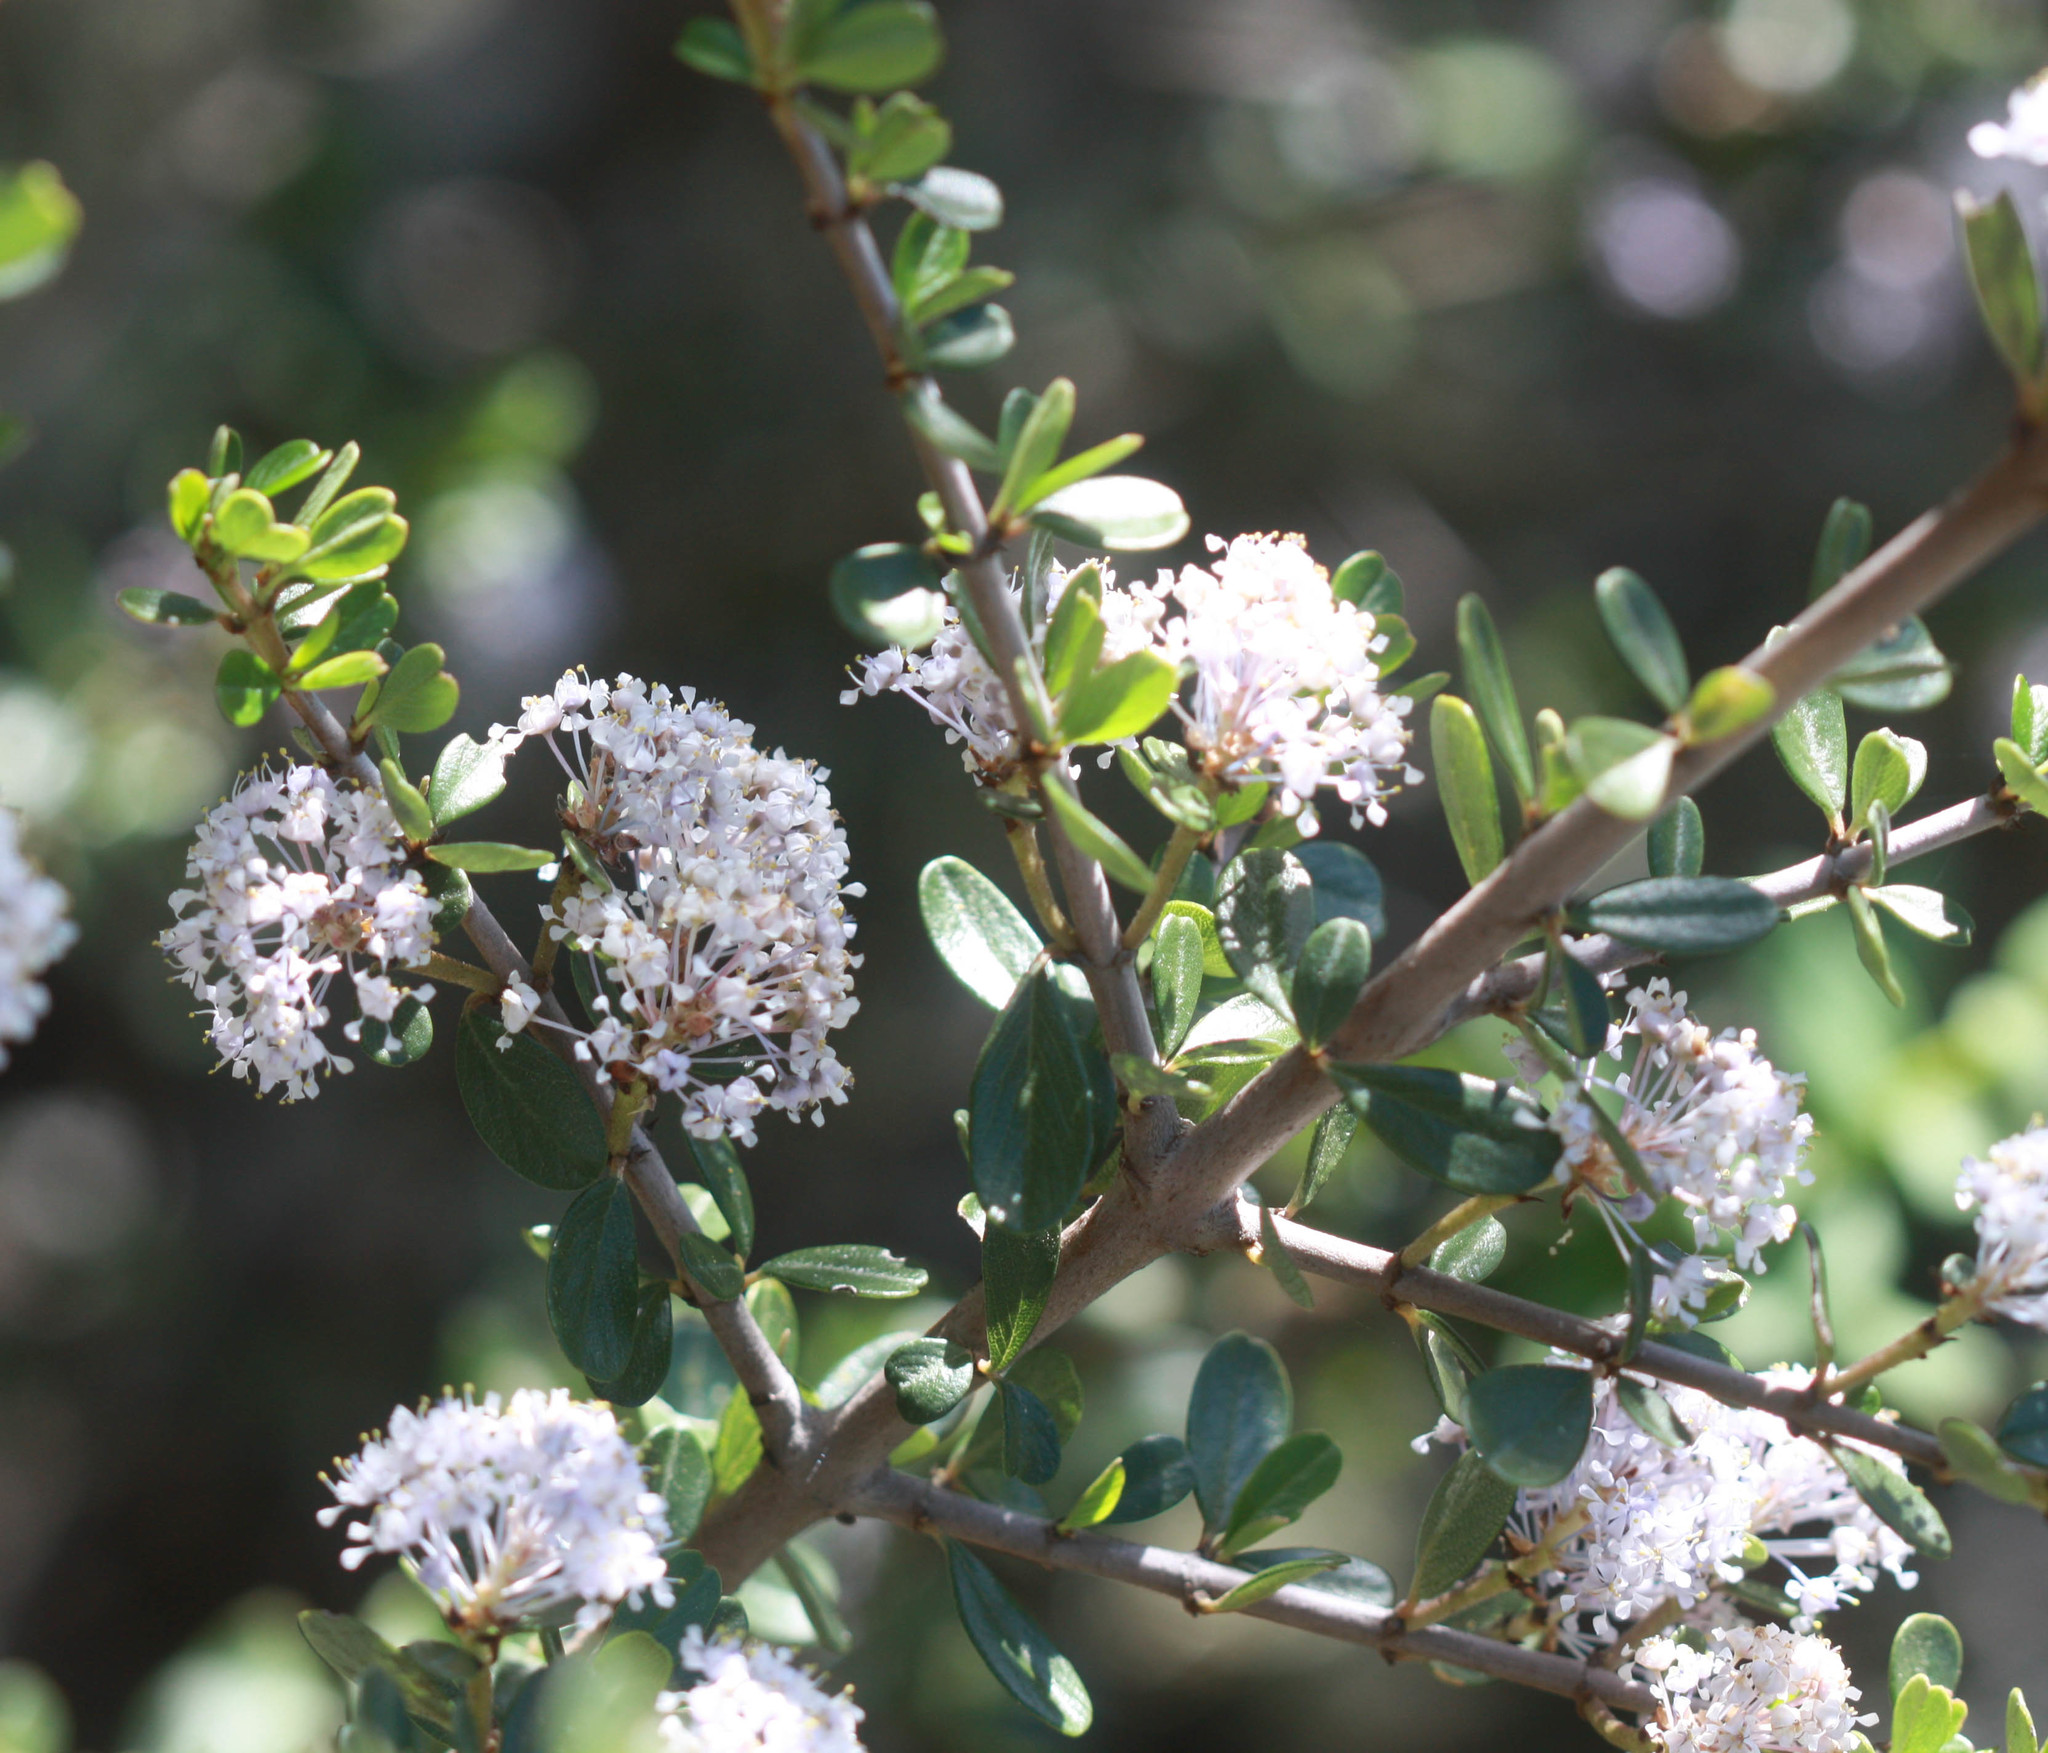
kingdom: Plantae
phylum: Tracheophyta
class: Magnoliopsida
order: Rosales
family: Rhamnaceae
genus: Ceanothus
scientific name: Ceanothus cuneatus
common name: Cuneate ceanothus
